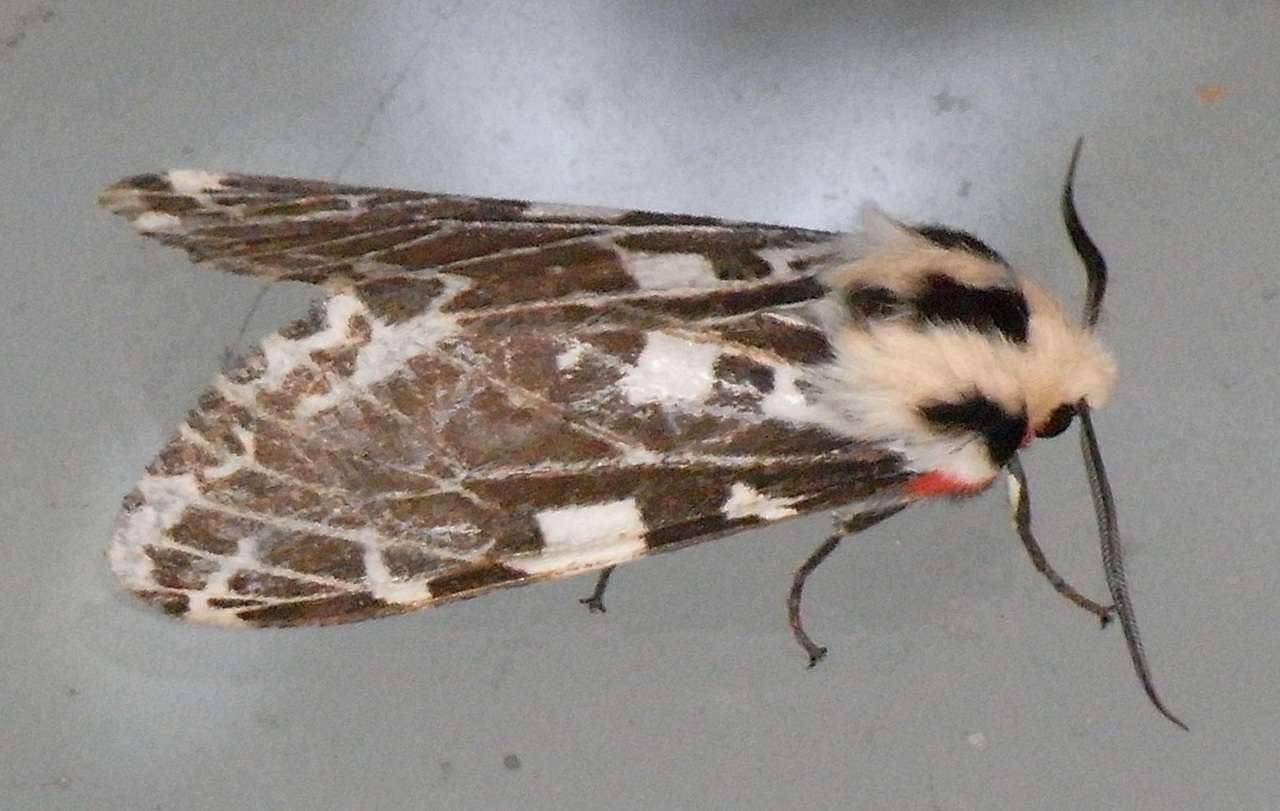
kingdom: Animalia
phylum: Arthropoda
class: Insecta
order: Lepidoptera
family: Erebidae
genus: Ardices
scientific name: Ardices glatignyi
